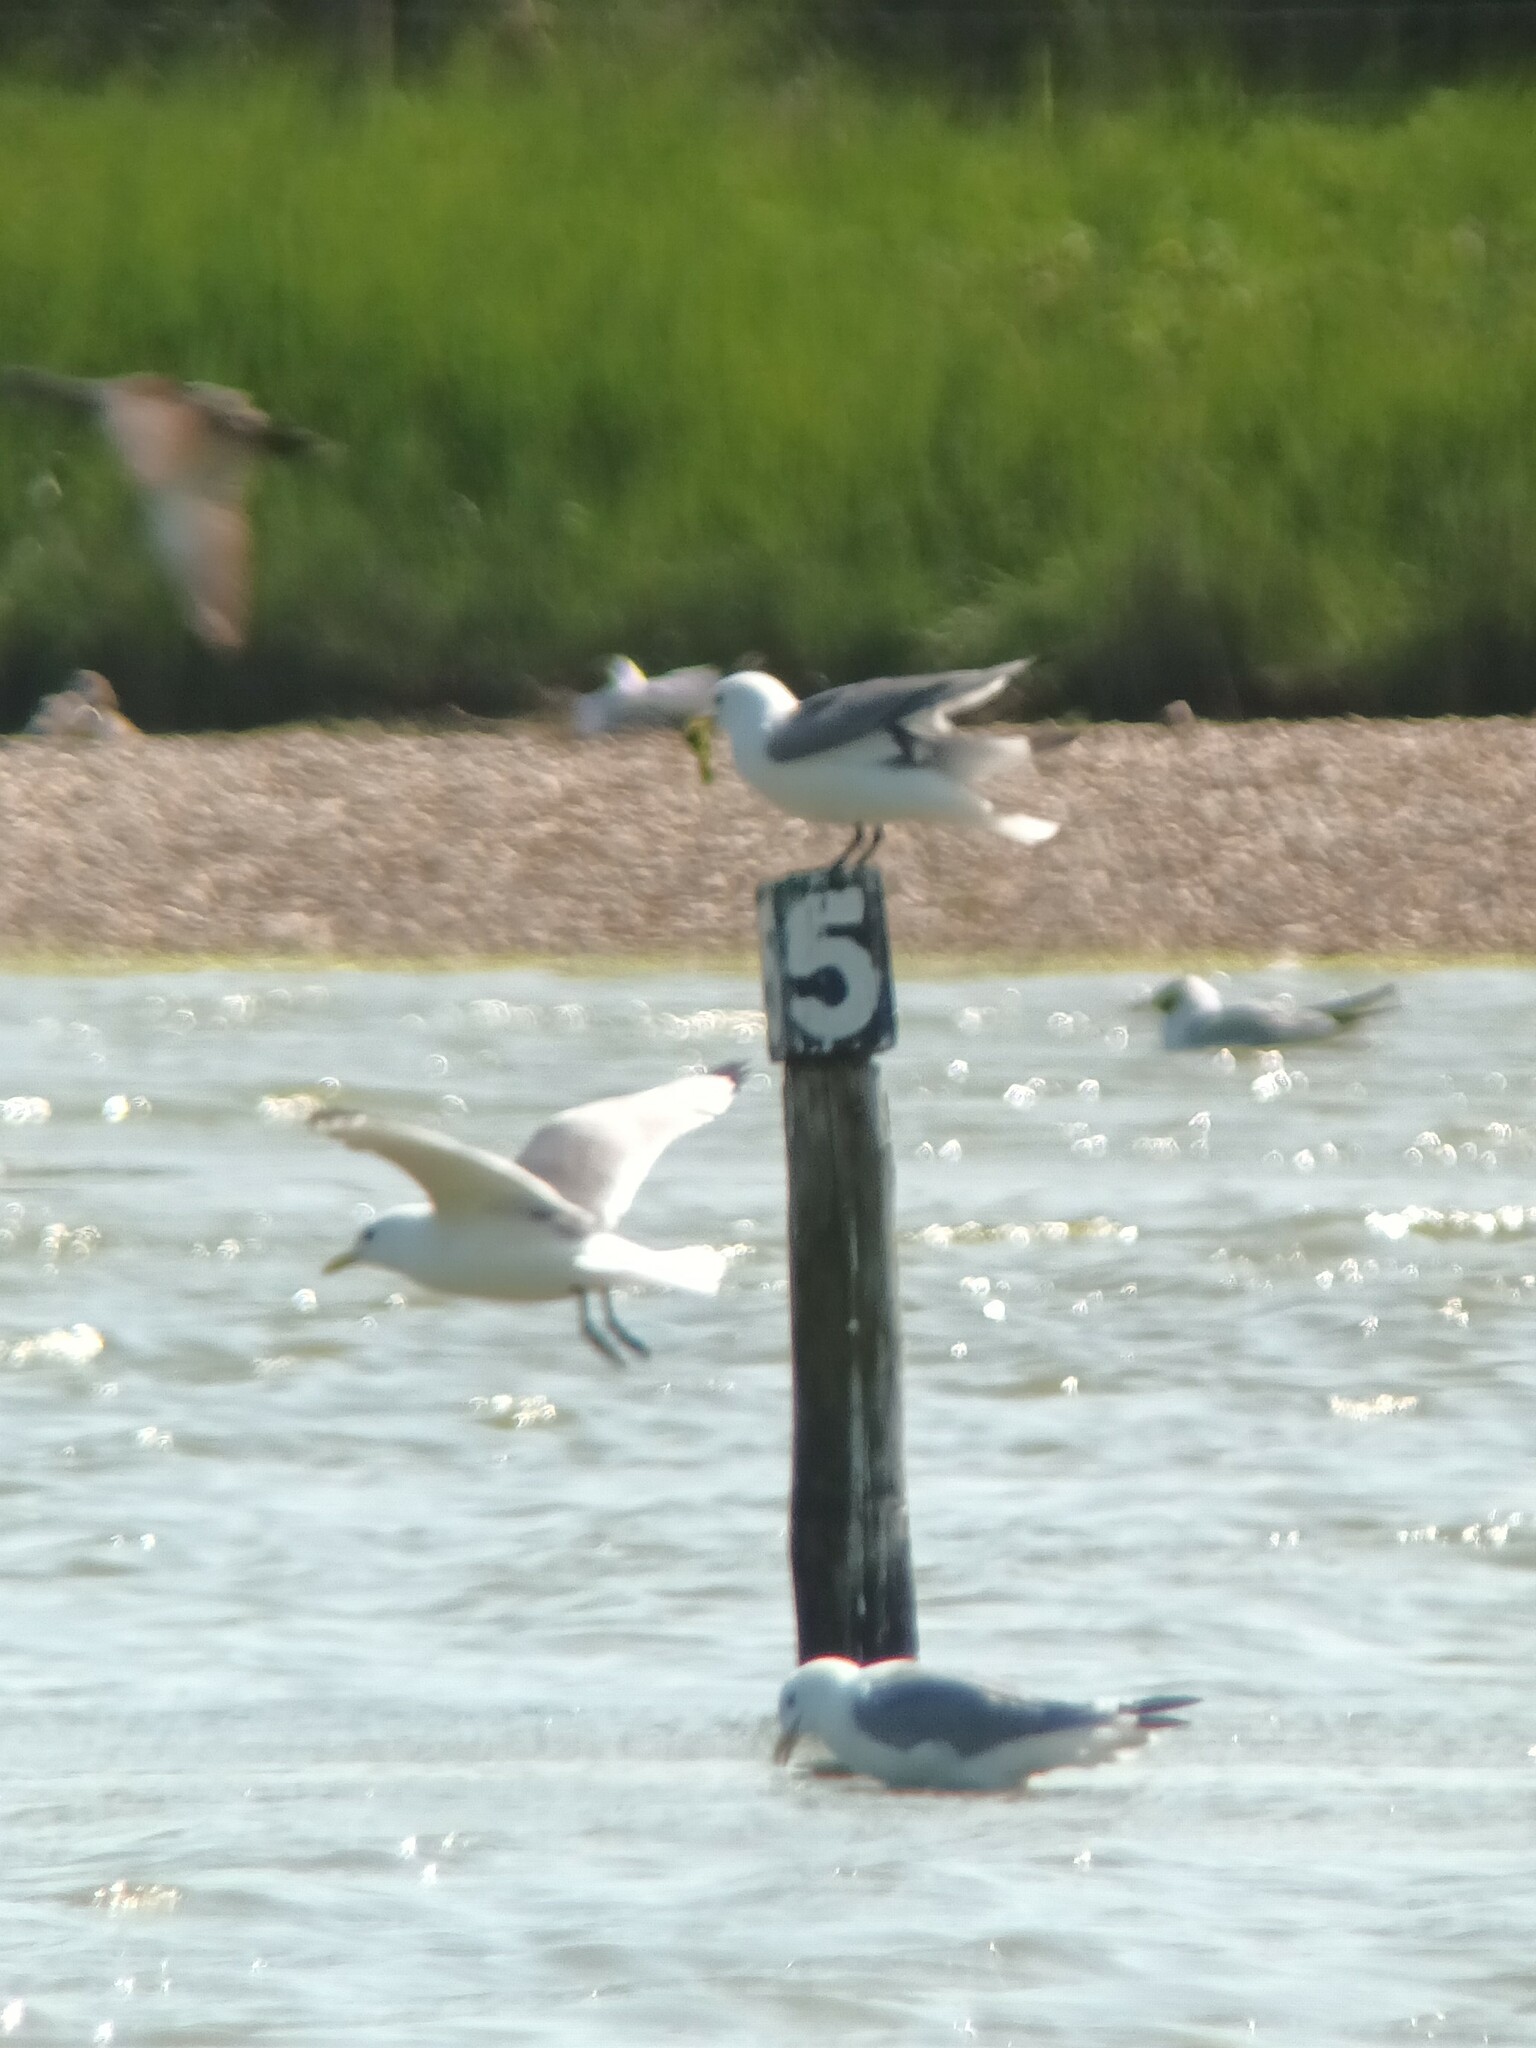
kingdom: Animalia
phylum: Chordata
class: Aves
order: Charadriiformes
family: Laridae
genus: Rissa
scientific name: Rissa tridactyla
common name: Black-legged kittiwake
